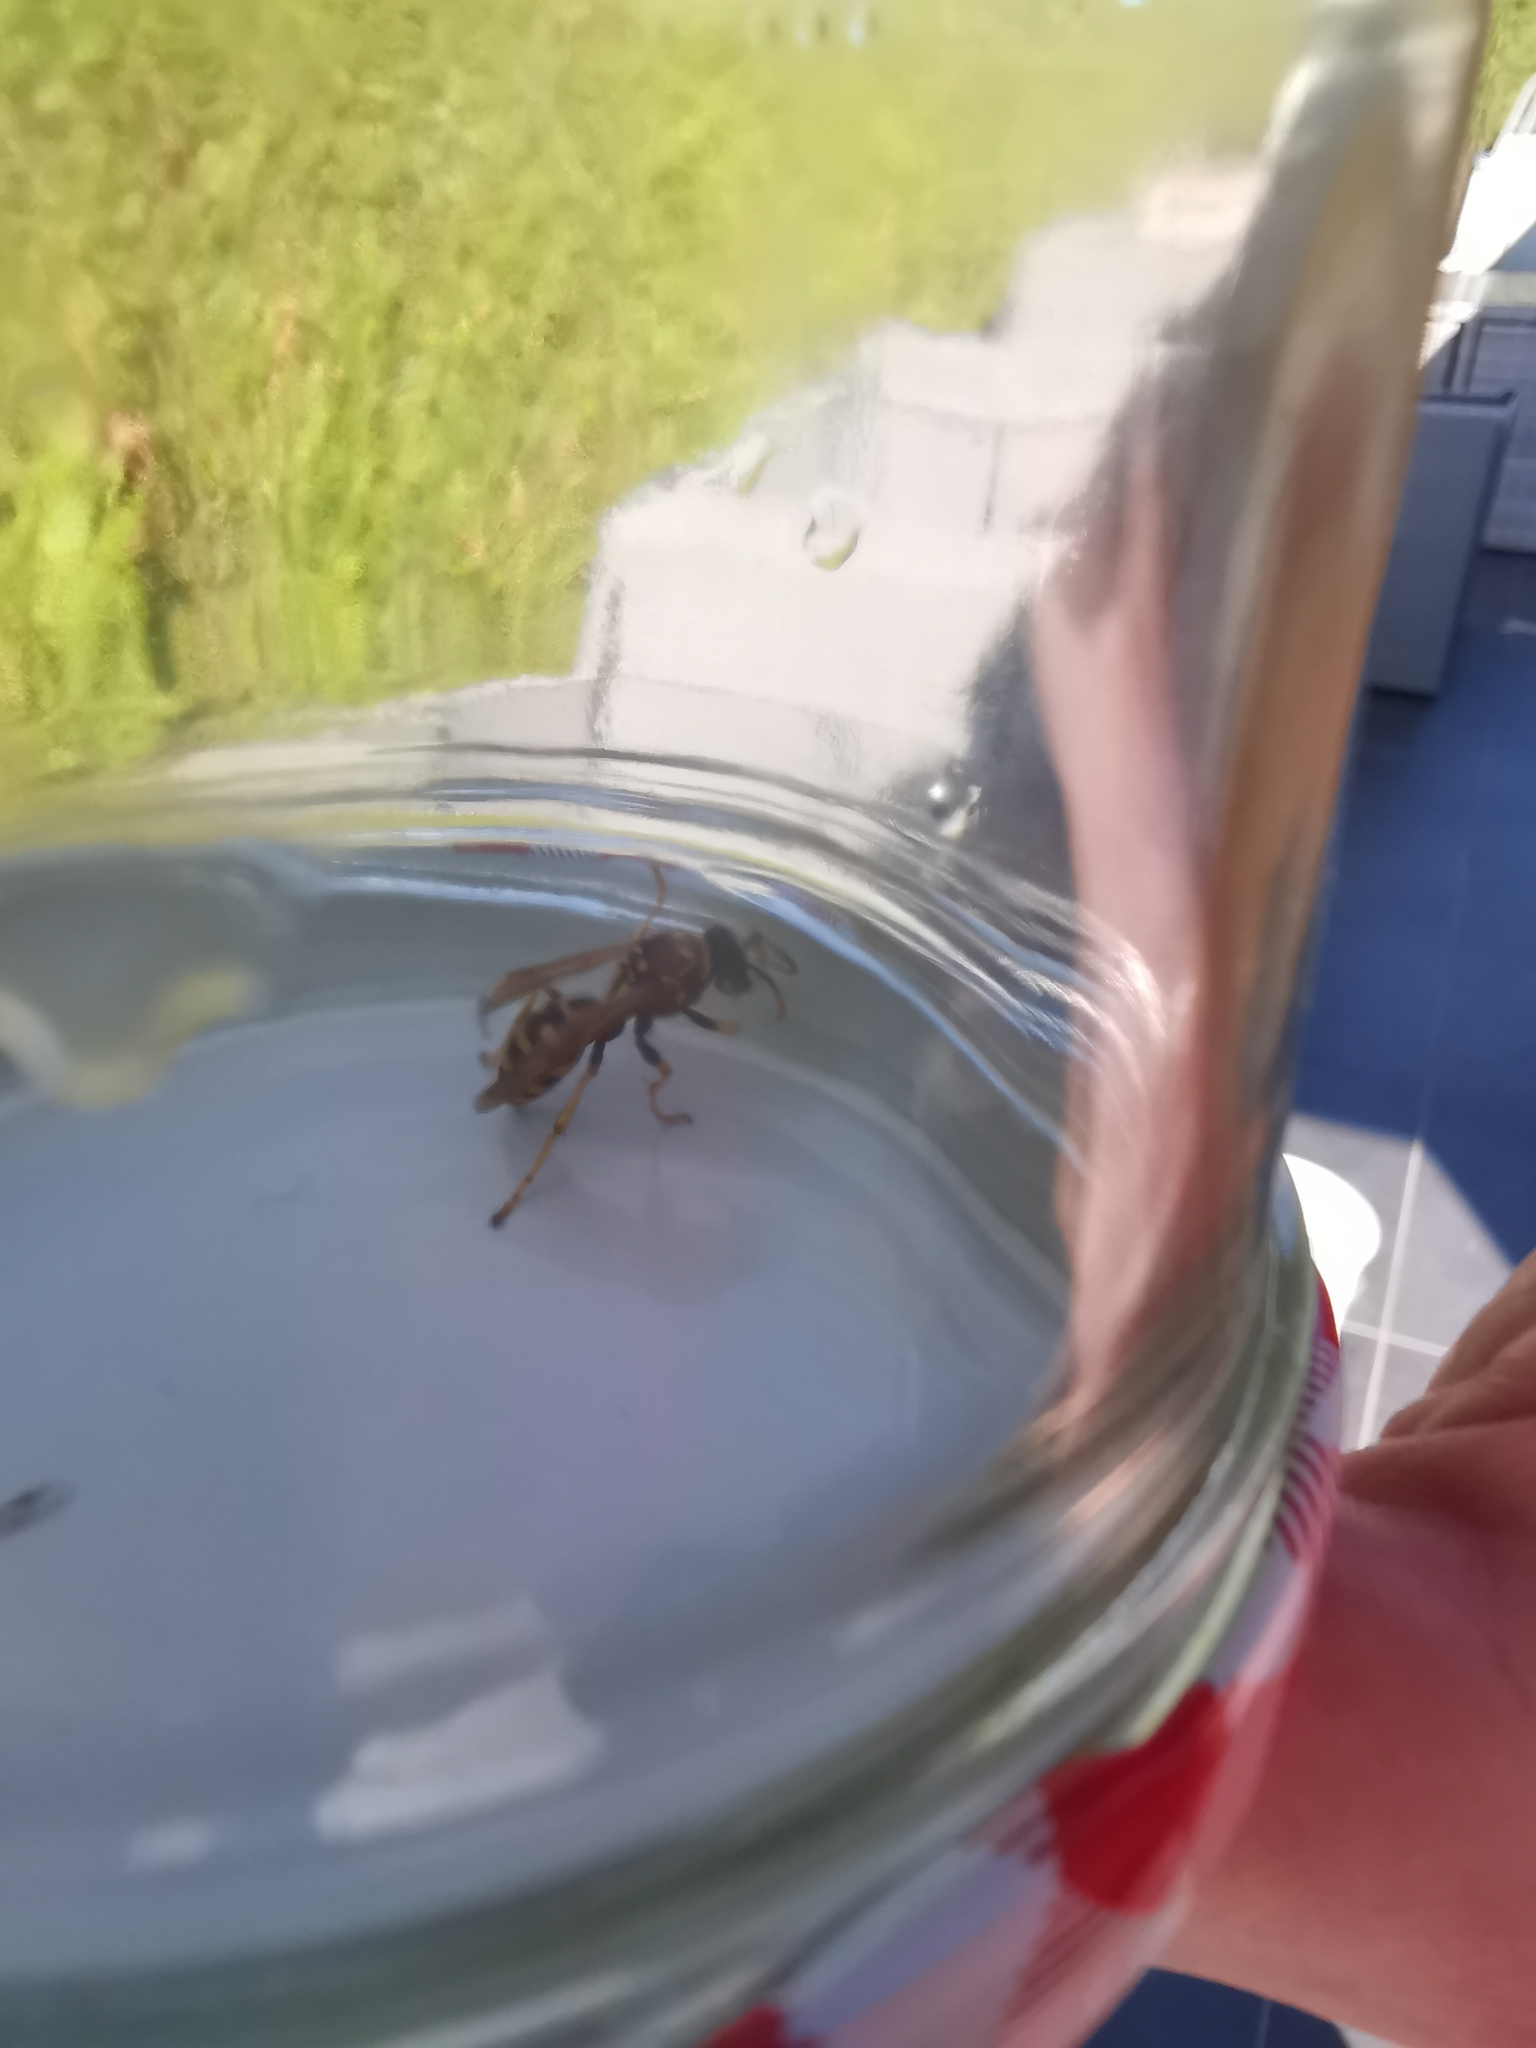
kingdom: Animalia
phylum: Arthropoda
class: Insecta
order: Hymenoptera
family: Eumenidae
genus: Polistes
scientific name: Polistes dominula
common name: Paper wasp
